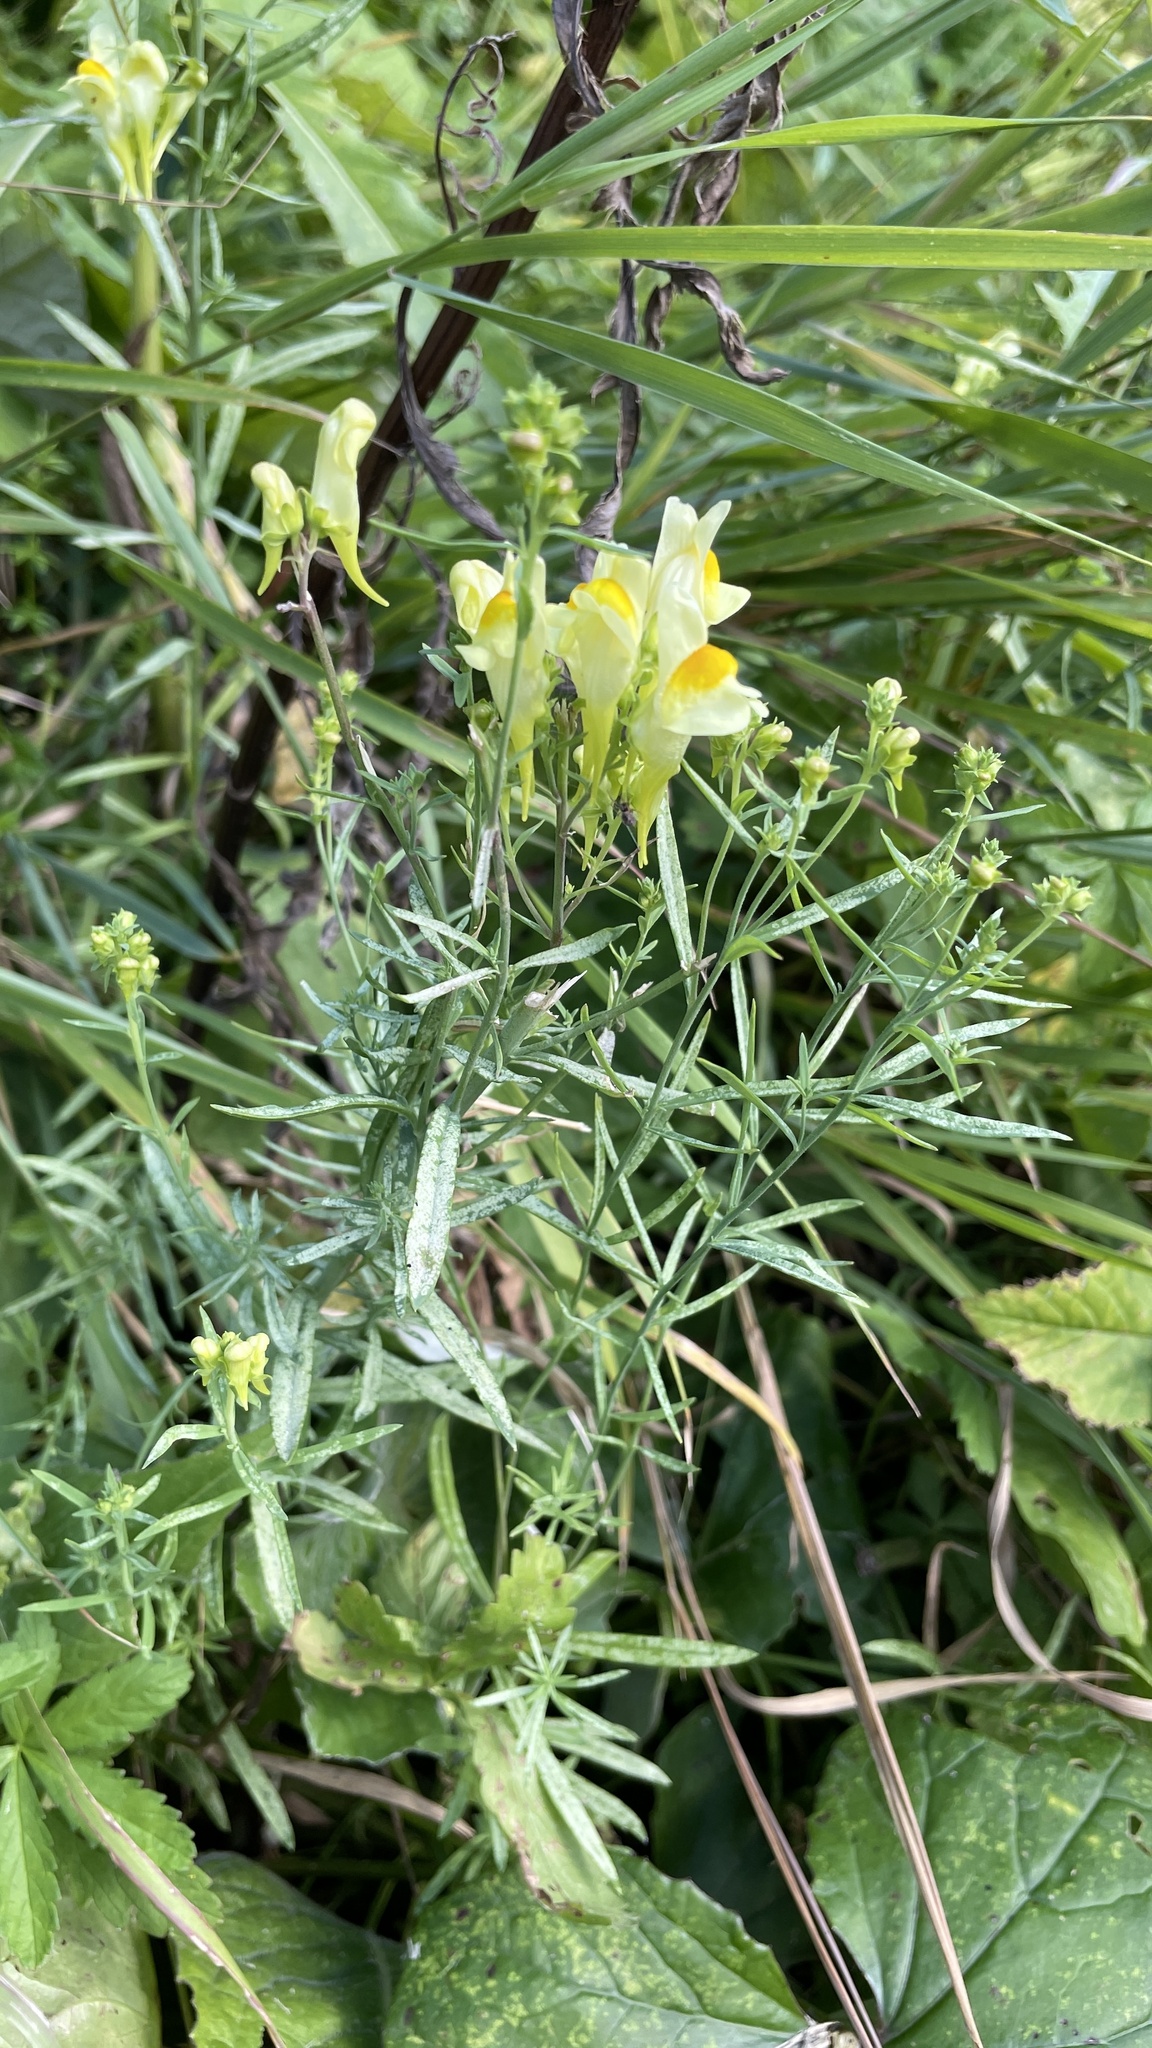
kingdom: Plantae
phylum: Tracheophyta
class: Magnoliopsida
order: Lamiales
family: Plantaginaceae
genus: Linaria
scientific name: Linaria vulgaris
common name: Butter and eggs
